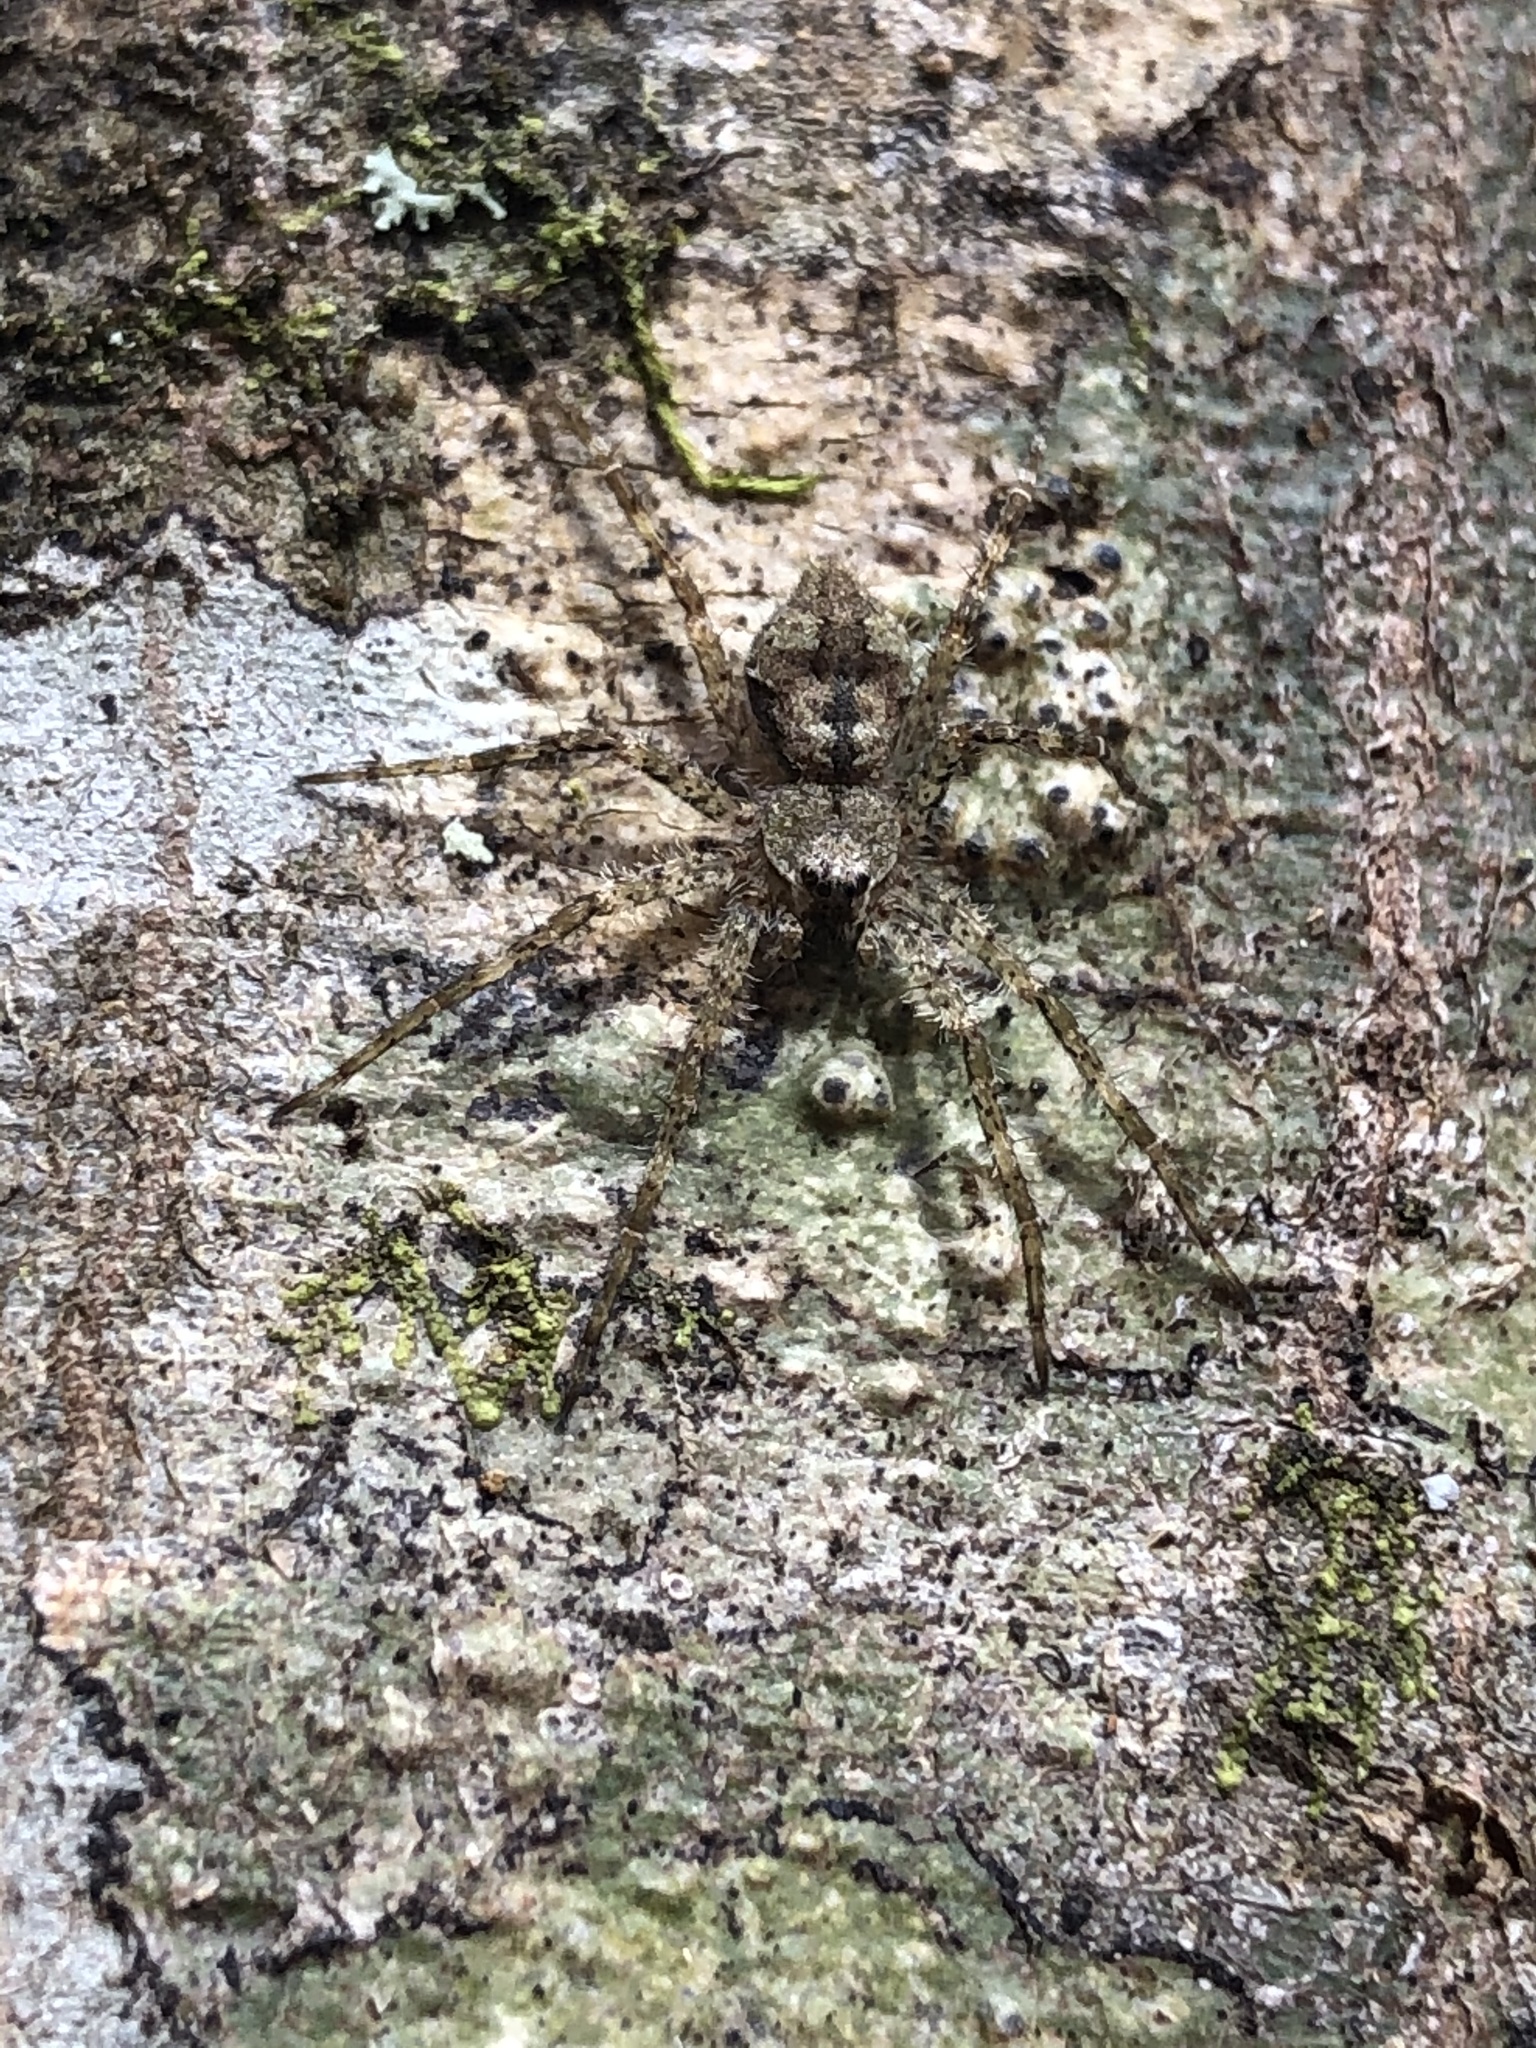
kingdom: Animalia
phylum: Arthropoda
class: Arachnida
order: Araneae
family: Pisauridae
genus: Dolomedes
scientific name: Dolomedes albineus
